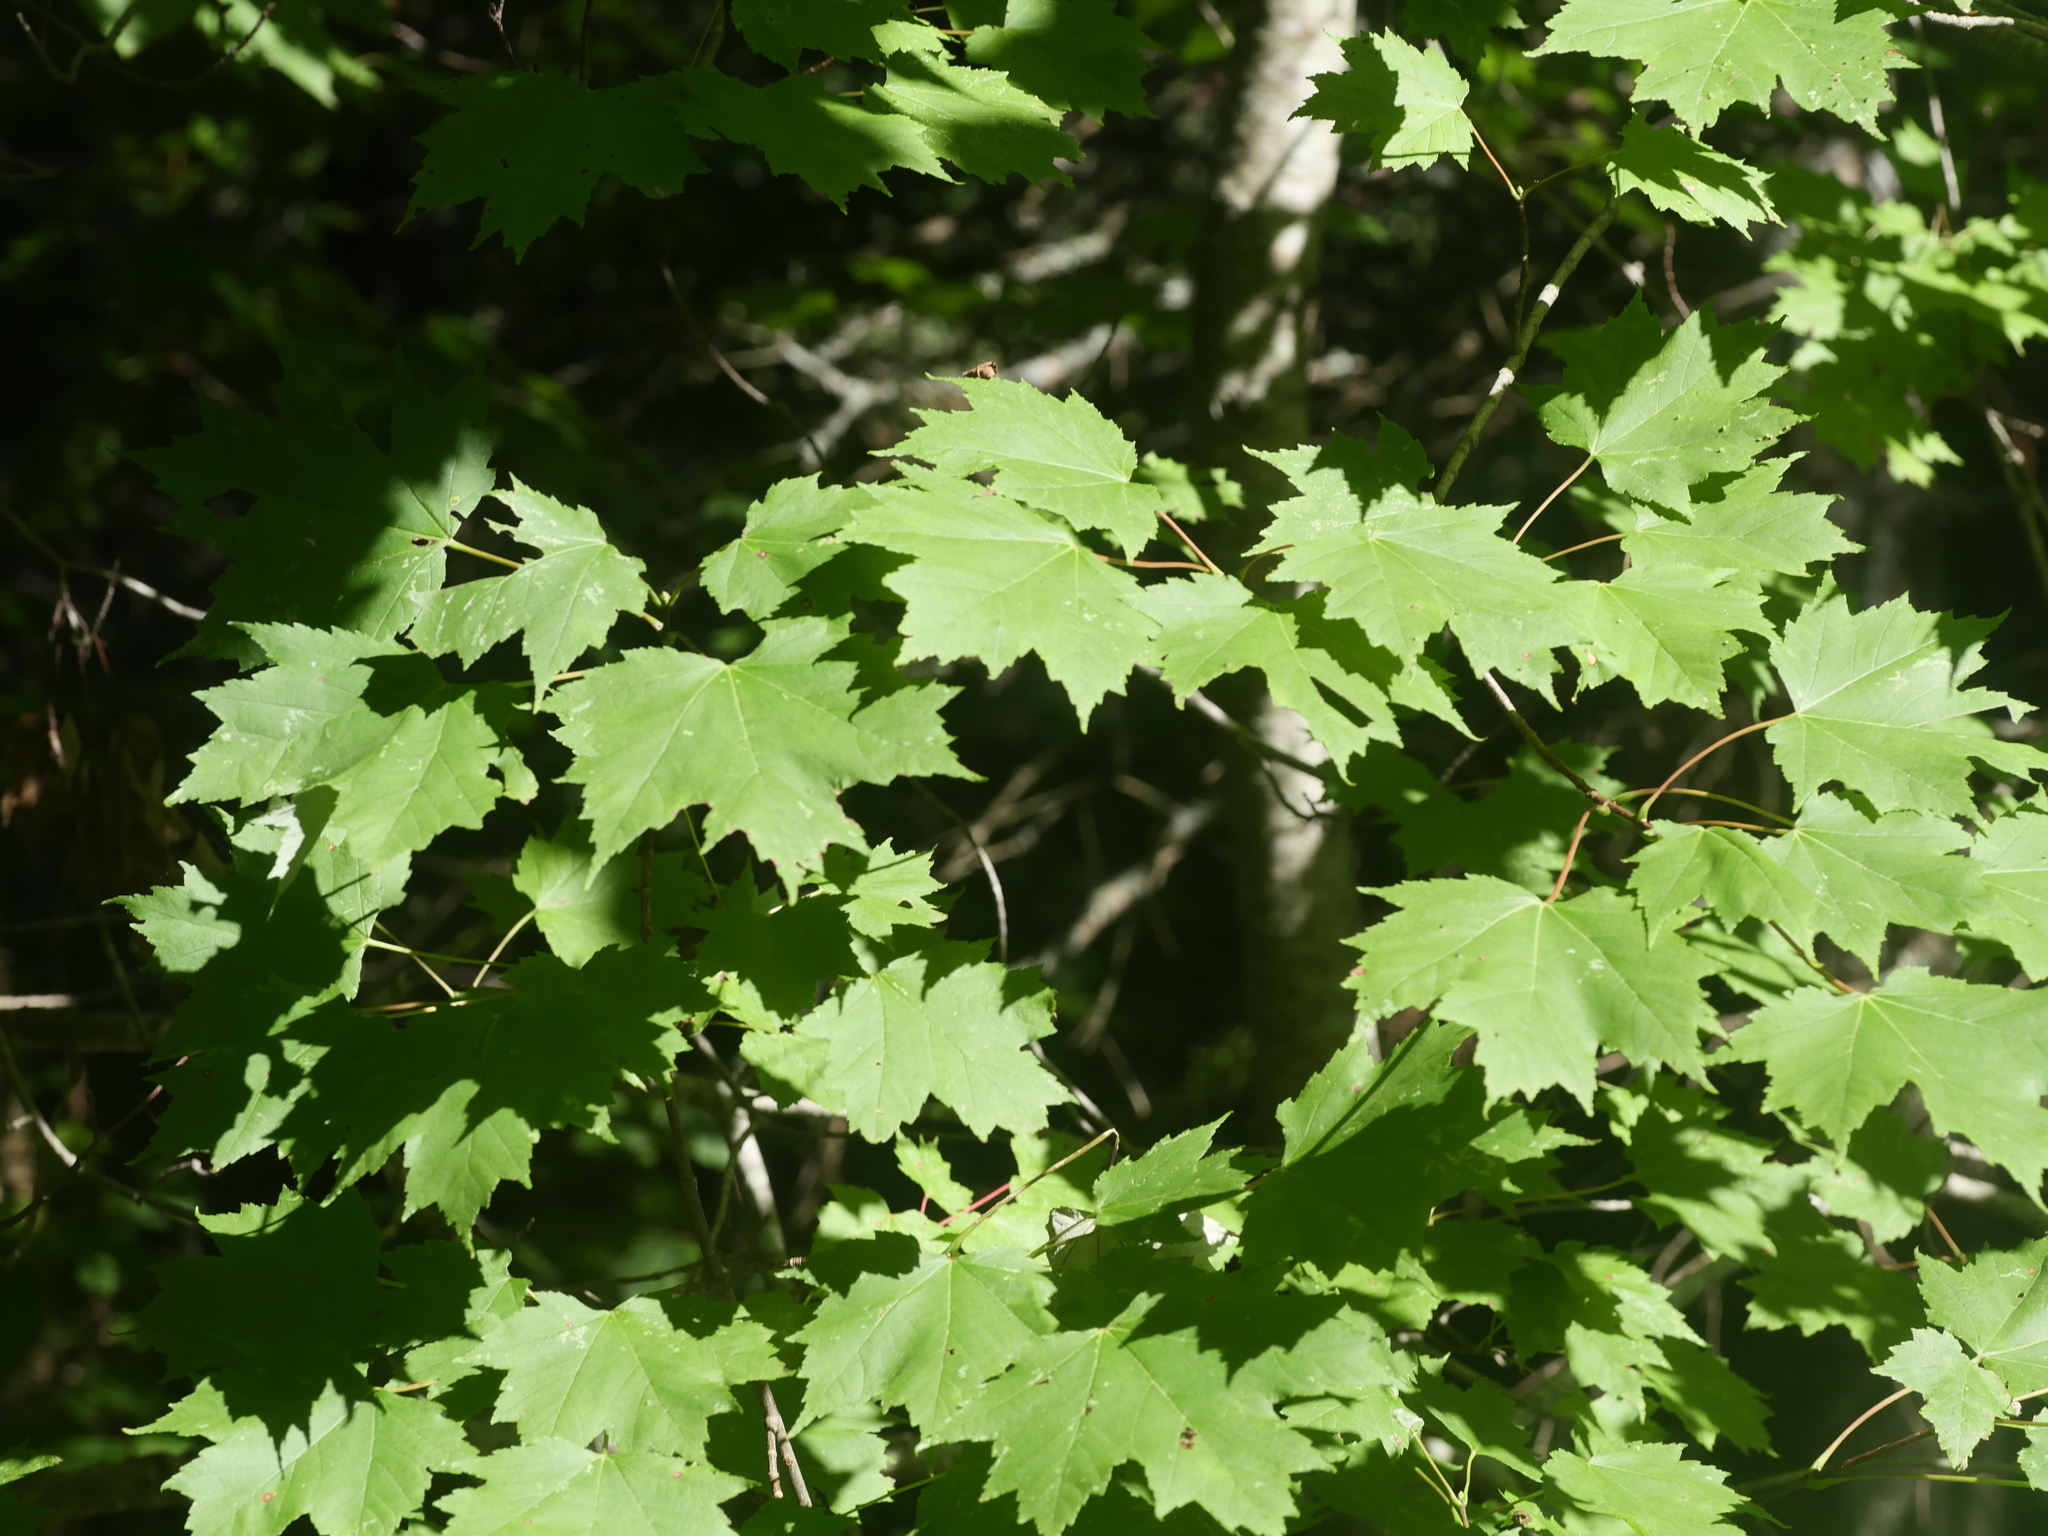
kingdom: Plantae
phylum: Tracheophyta
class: Magnoliopsida
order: Sapindales
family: Sapindaceae
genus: Acer
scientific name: Acer saccharum
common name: Sugar maple
